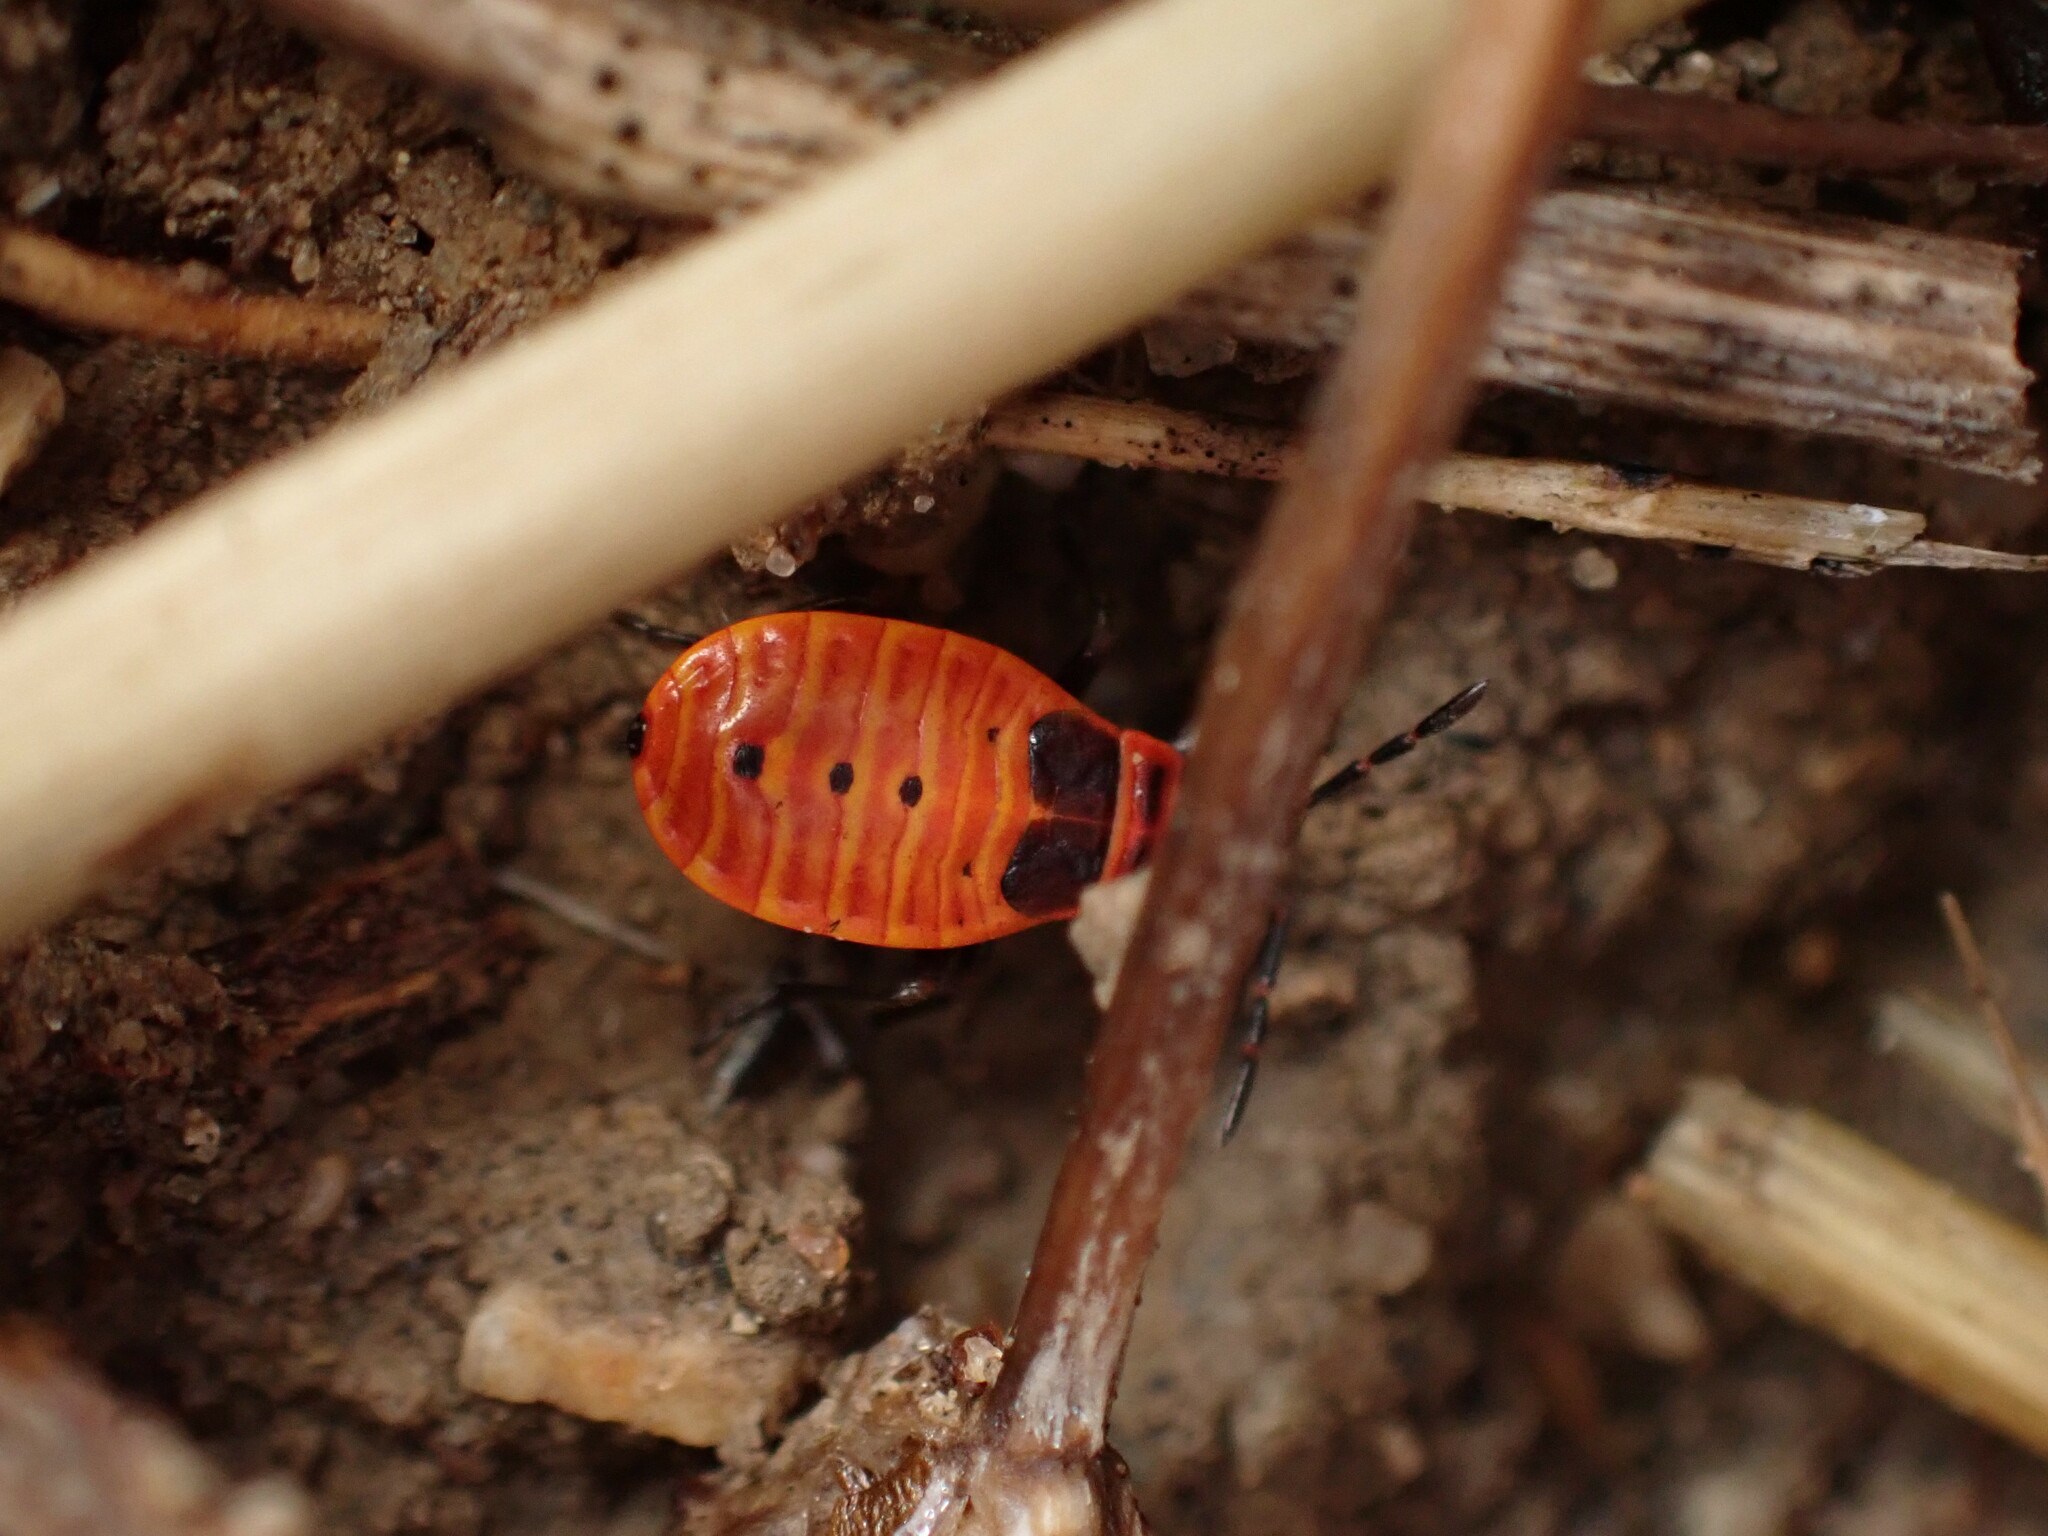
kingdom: Animalia
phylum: Arthropoda
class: Insecta
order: Hemiptera
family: Pyrrhocoridae
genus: Pyrrhocoris
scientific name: Pyrrhocoris apterus
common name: Firebug
